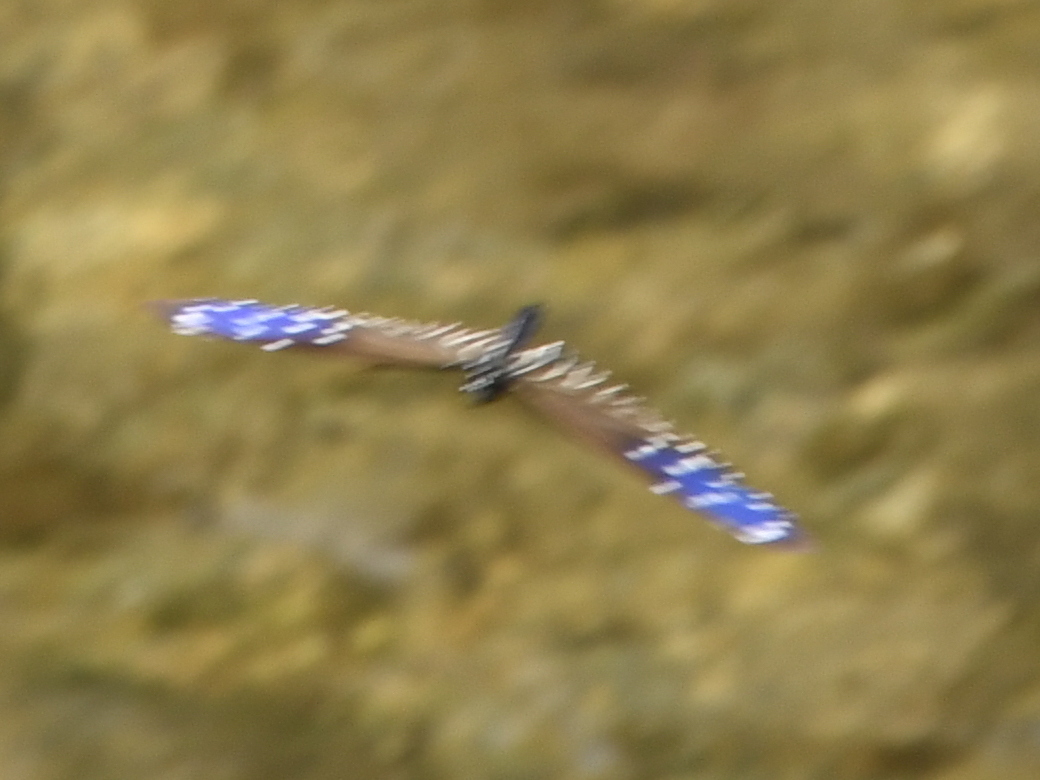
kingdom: Animalia
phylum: Arthropoda
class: Insecta
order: Lepidoptera
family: Nymphalidae
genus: Euploea
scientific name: Euploea mulciber
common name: Striped blue crow butterfly
